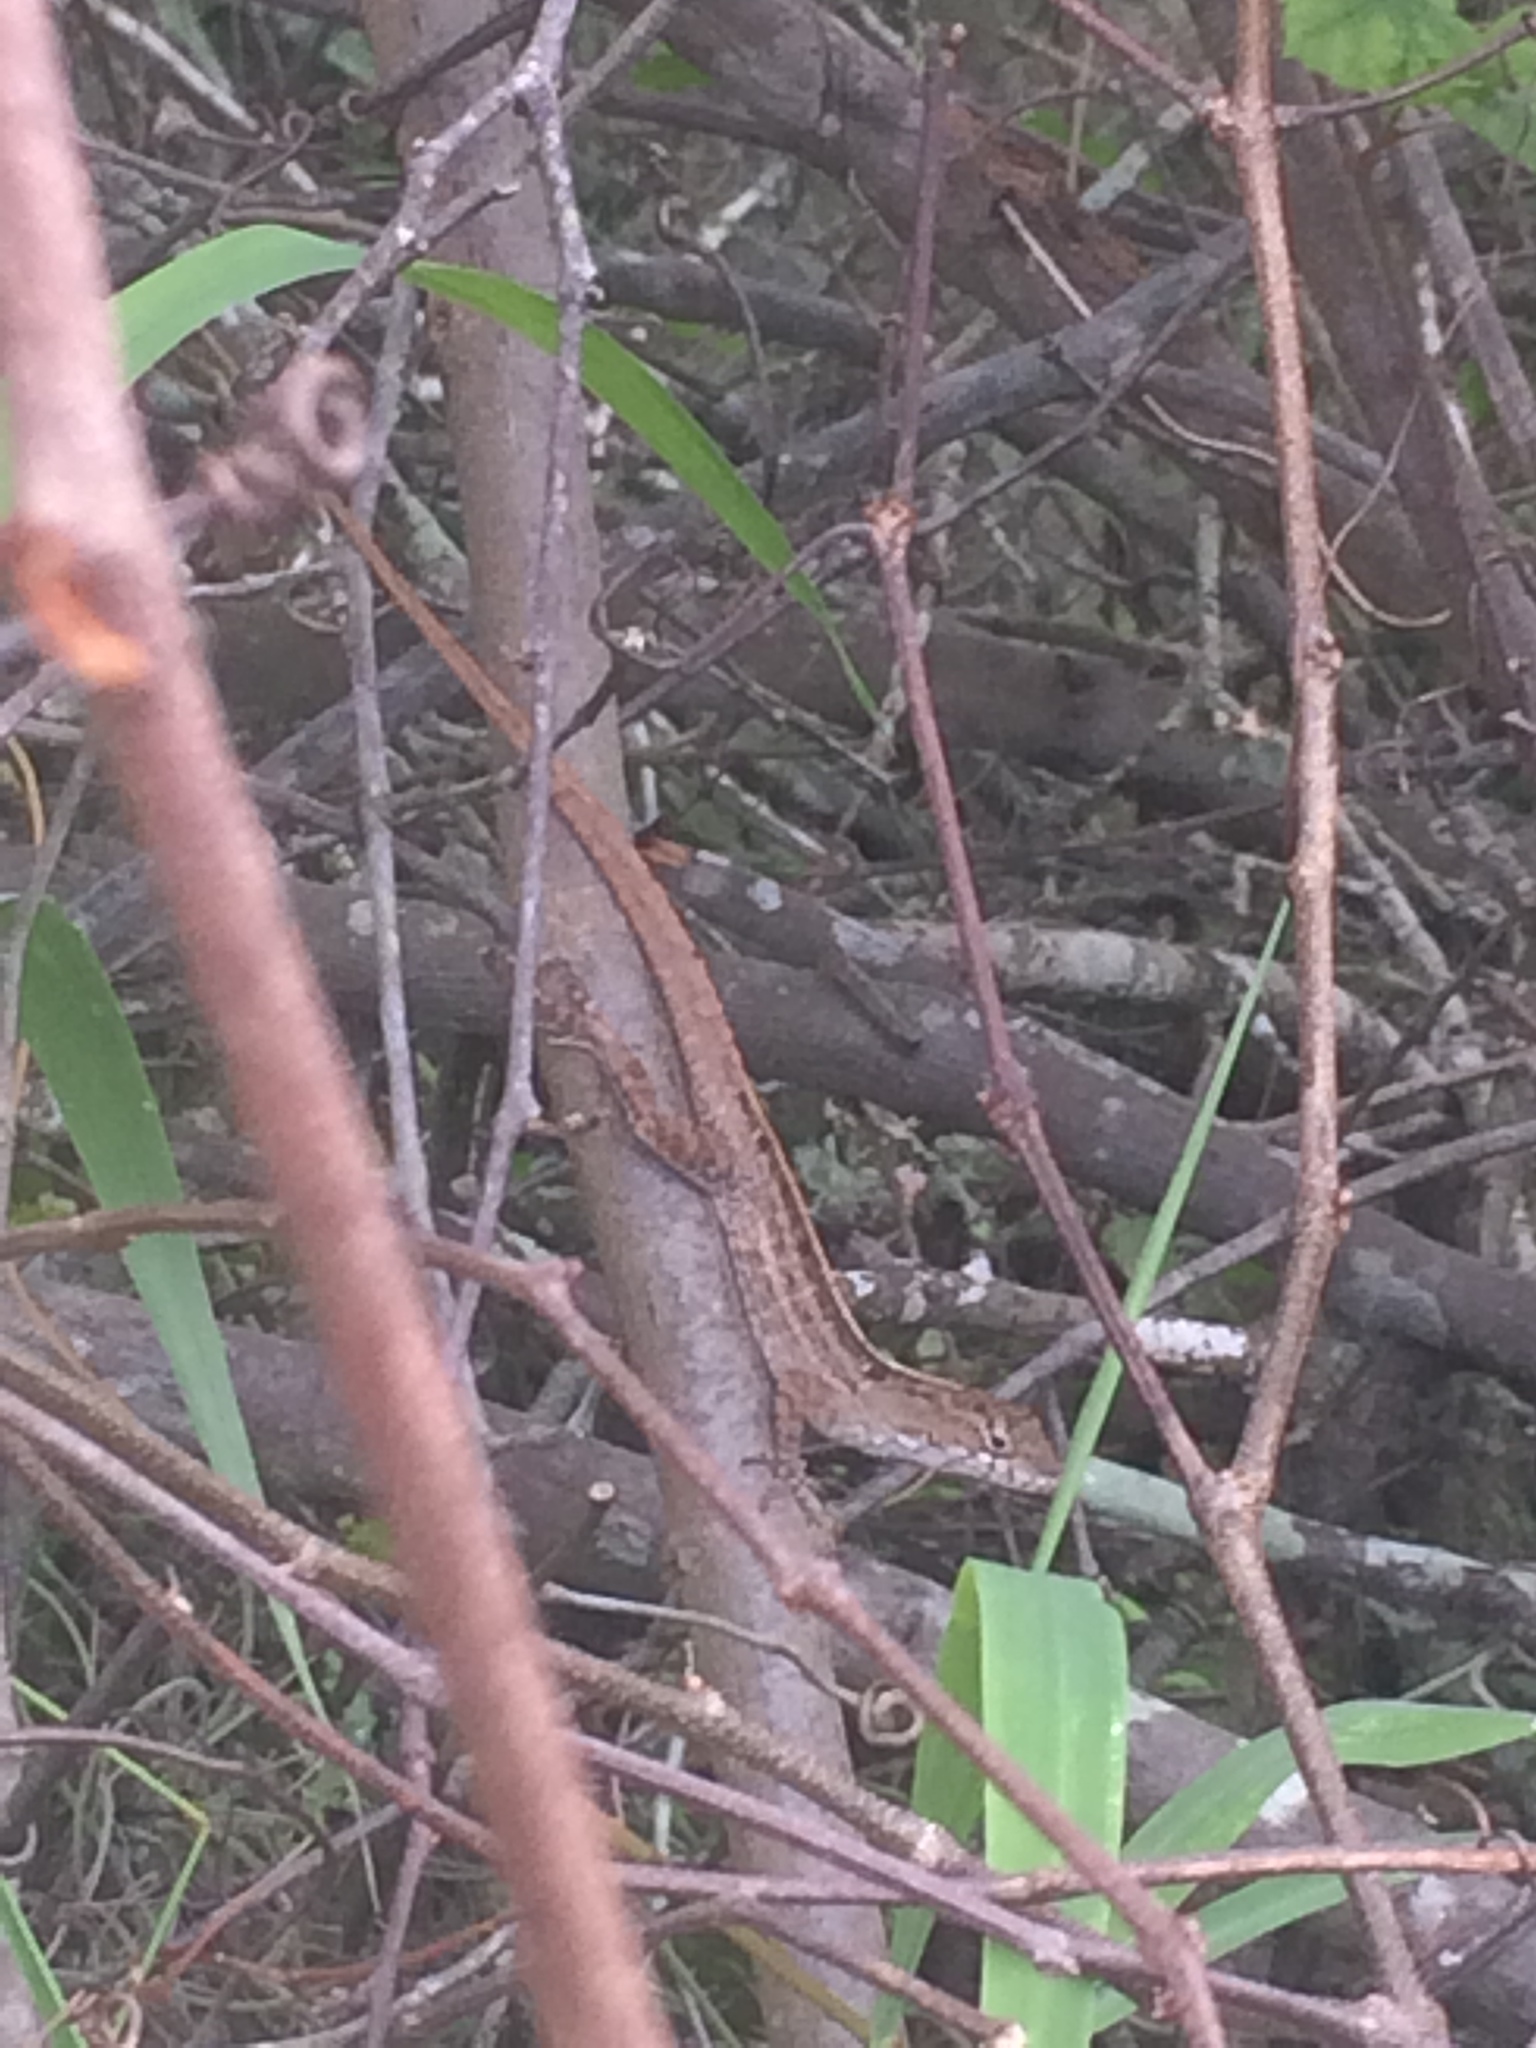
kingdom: Animalia
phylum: Chordata
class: Squamata
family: Dactyloidae
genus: Anolis
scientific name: Anolis sagrei
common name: Brown anole
